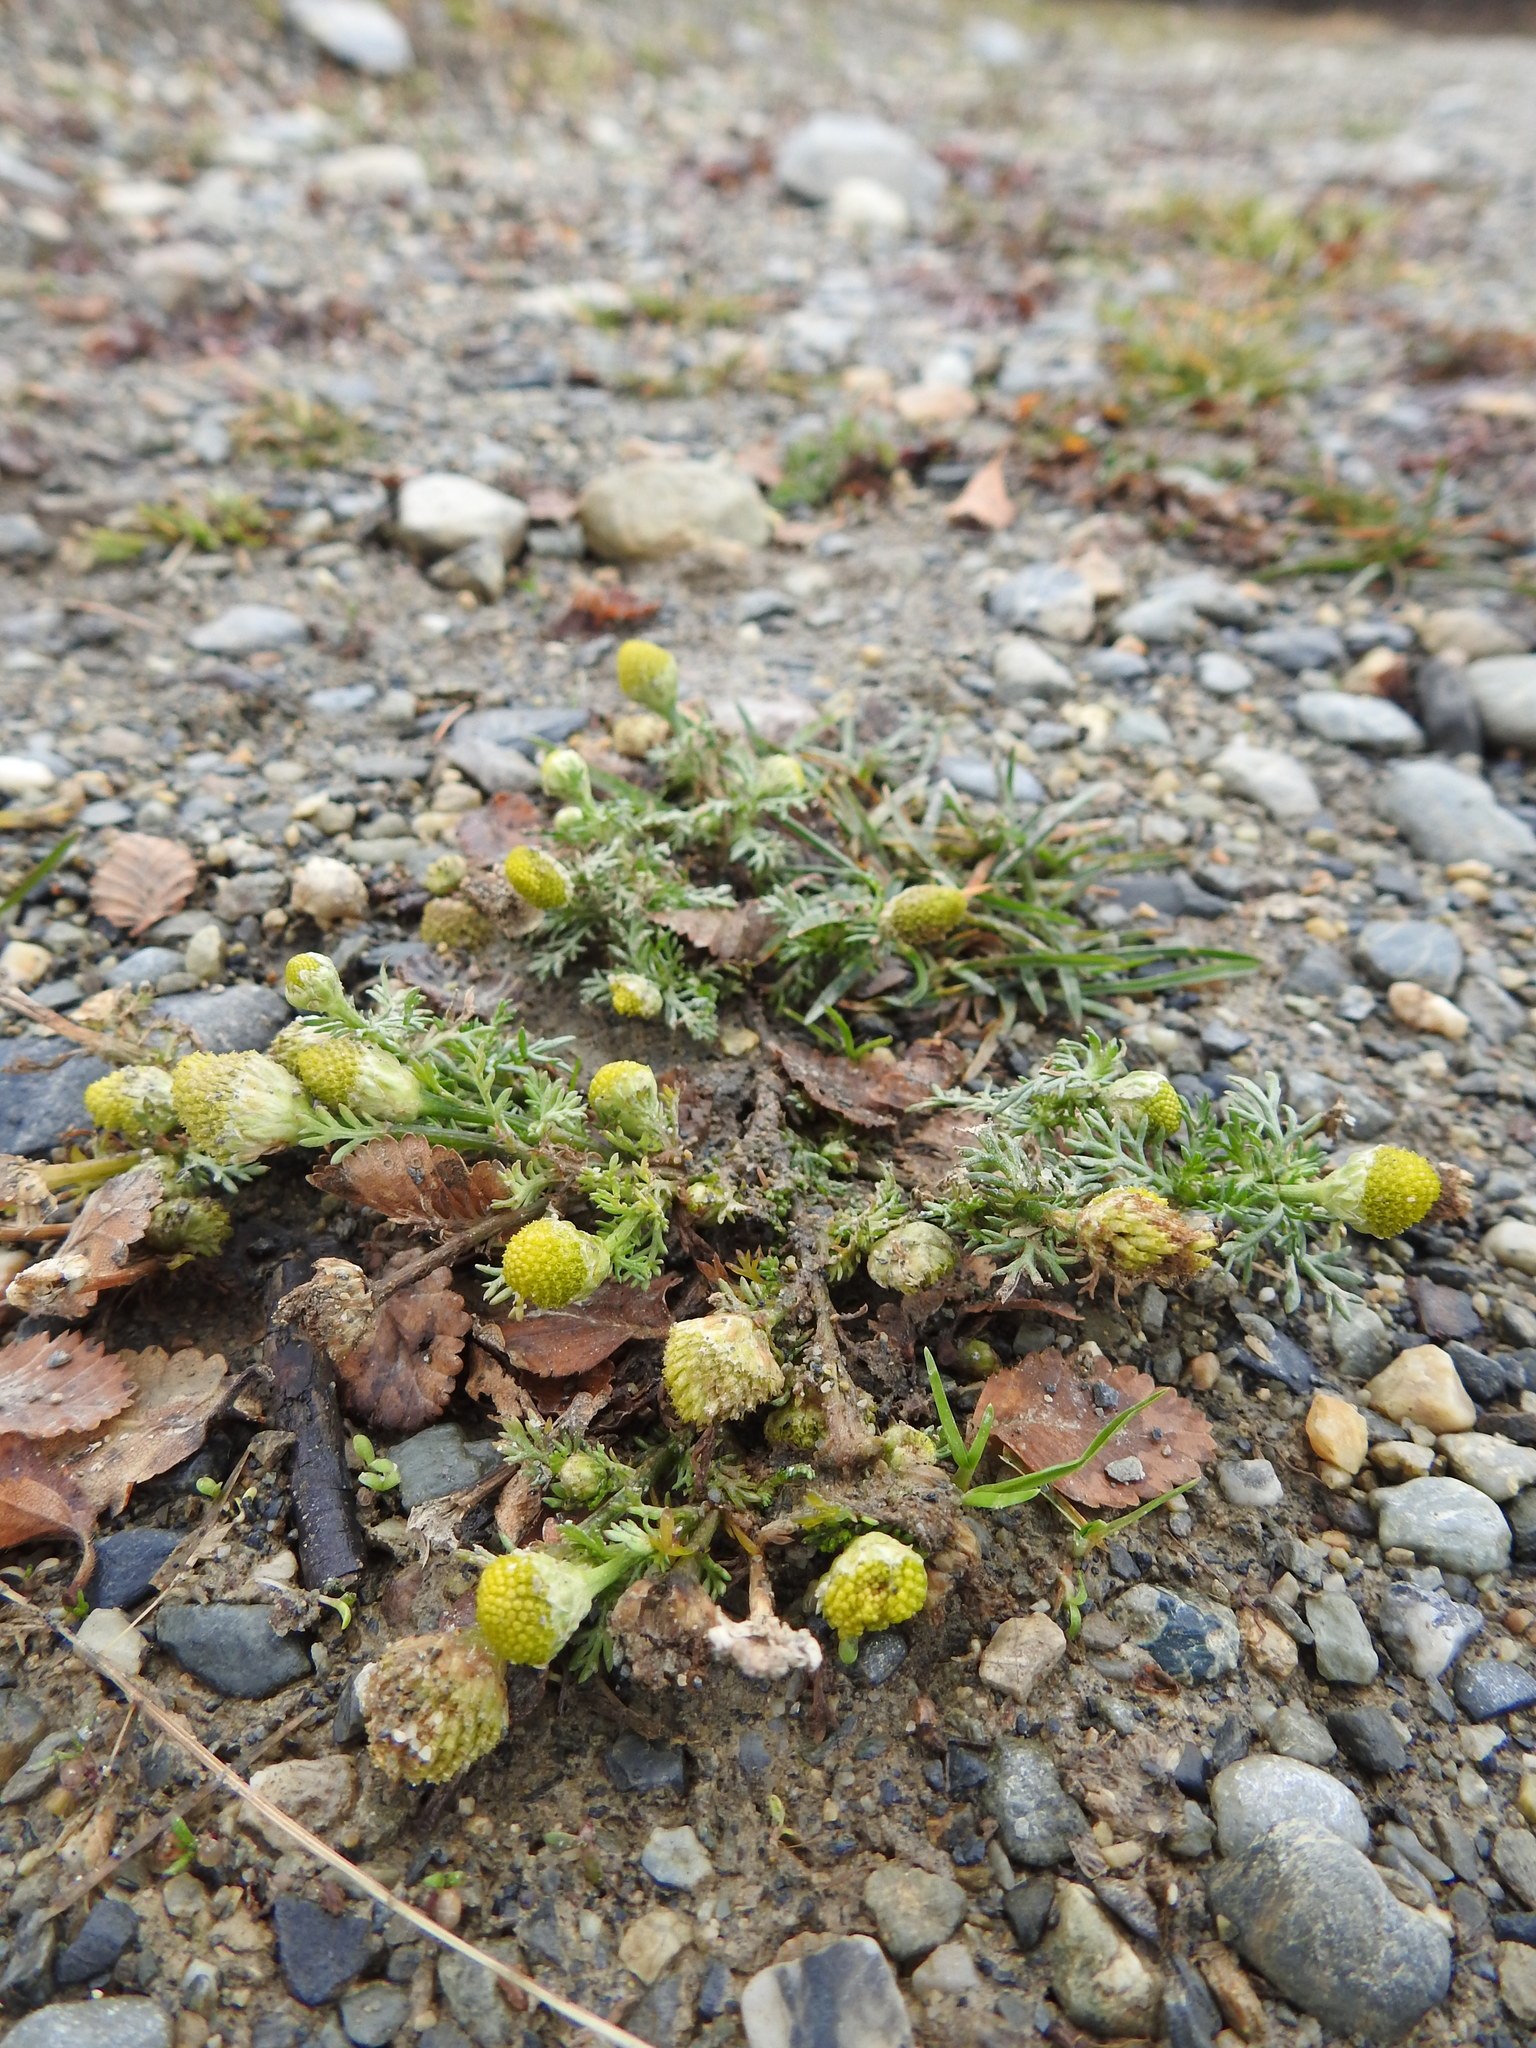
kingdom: Plantae
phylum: Tracheophyta
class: Magnoliopsida
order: Asterales
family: Asteraceae
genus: Matricaria
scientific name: Matricaria discoidea
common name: Disc mayweed
